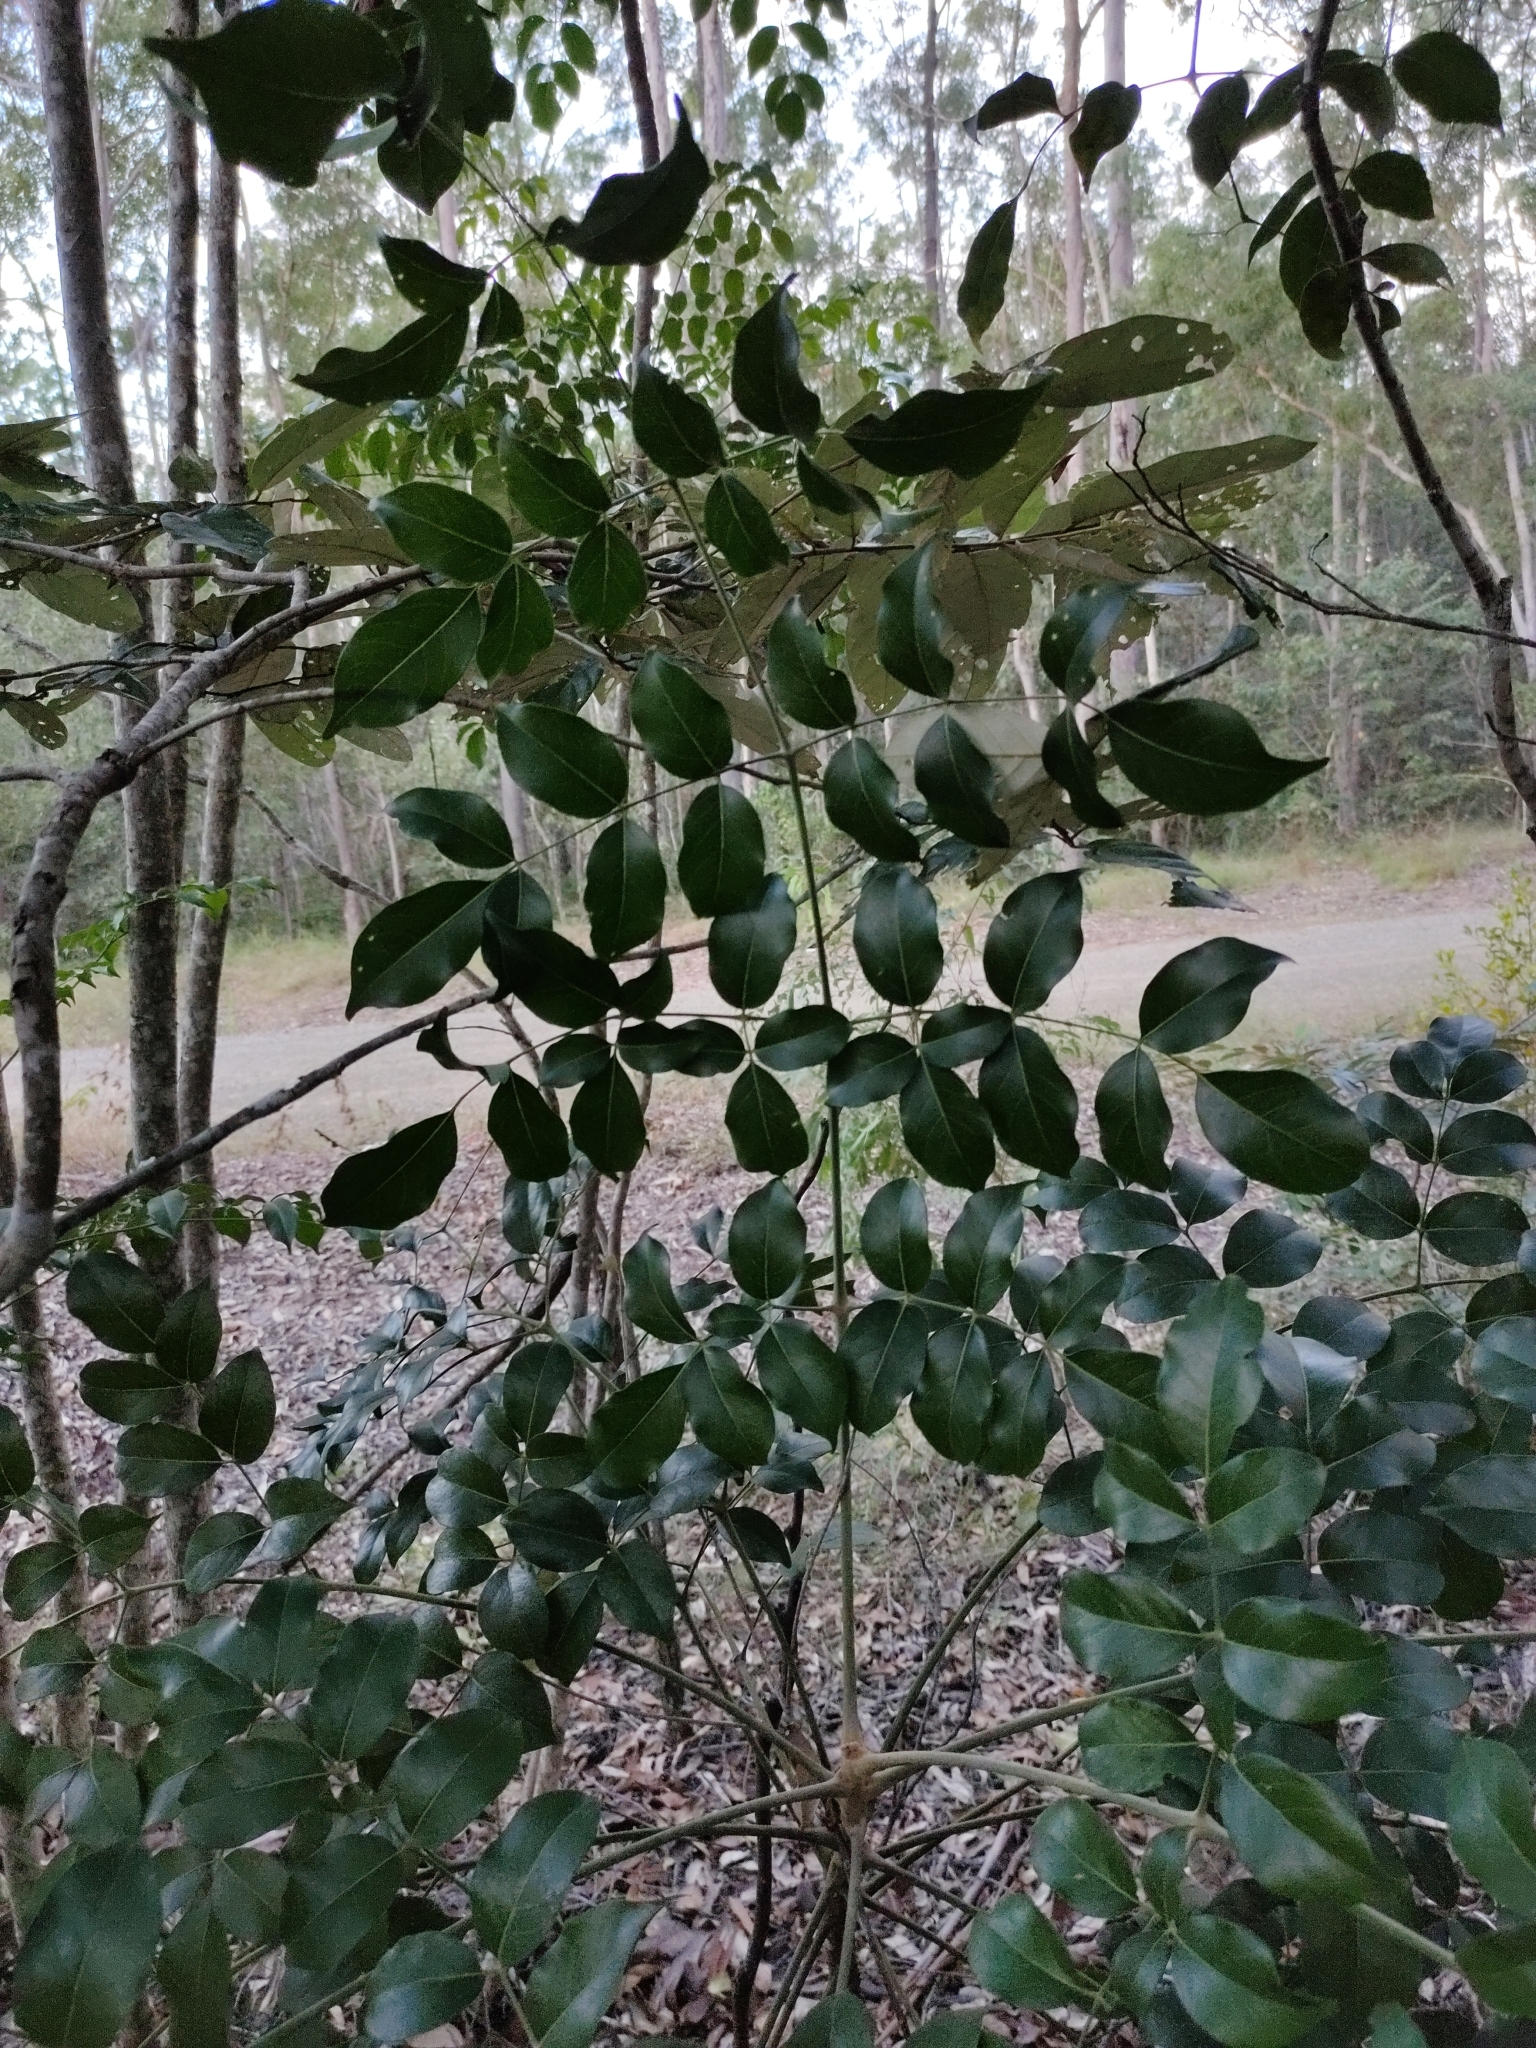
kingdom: Plantae
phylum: Tracheophyta
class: Magnoliopsida
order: Apiales
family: Araliaceae
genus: Polyscias
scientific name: Polyscias elegans
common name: Mowbulan whitewood
